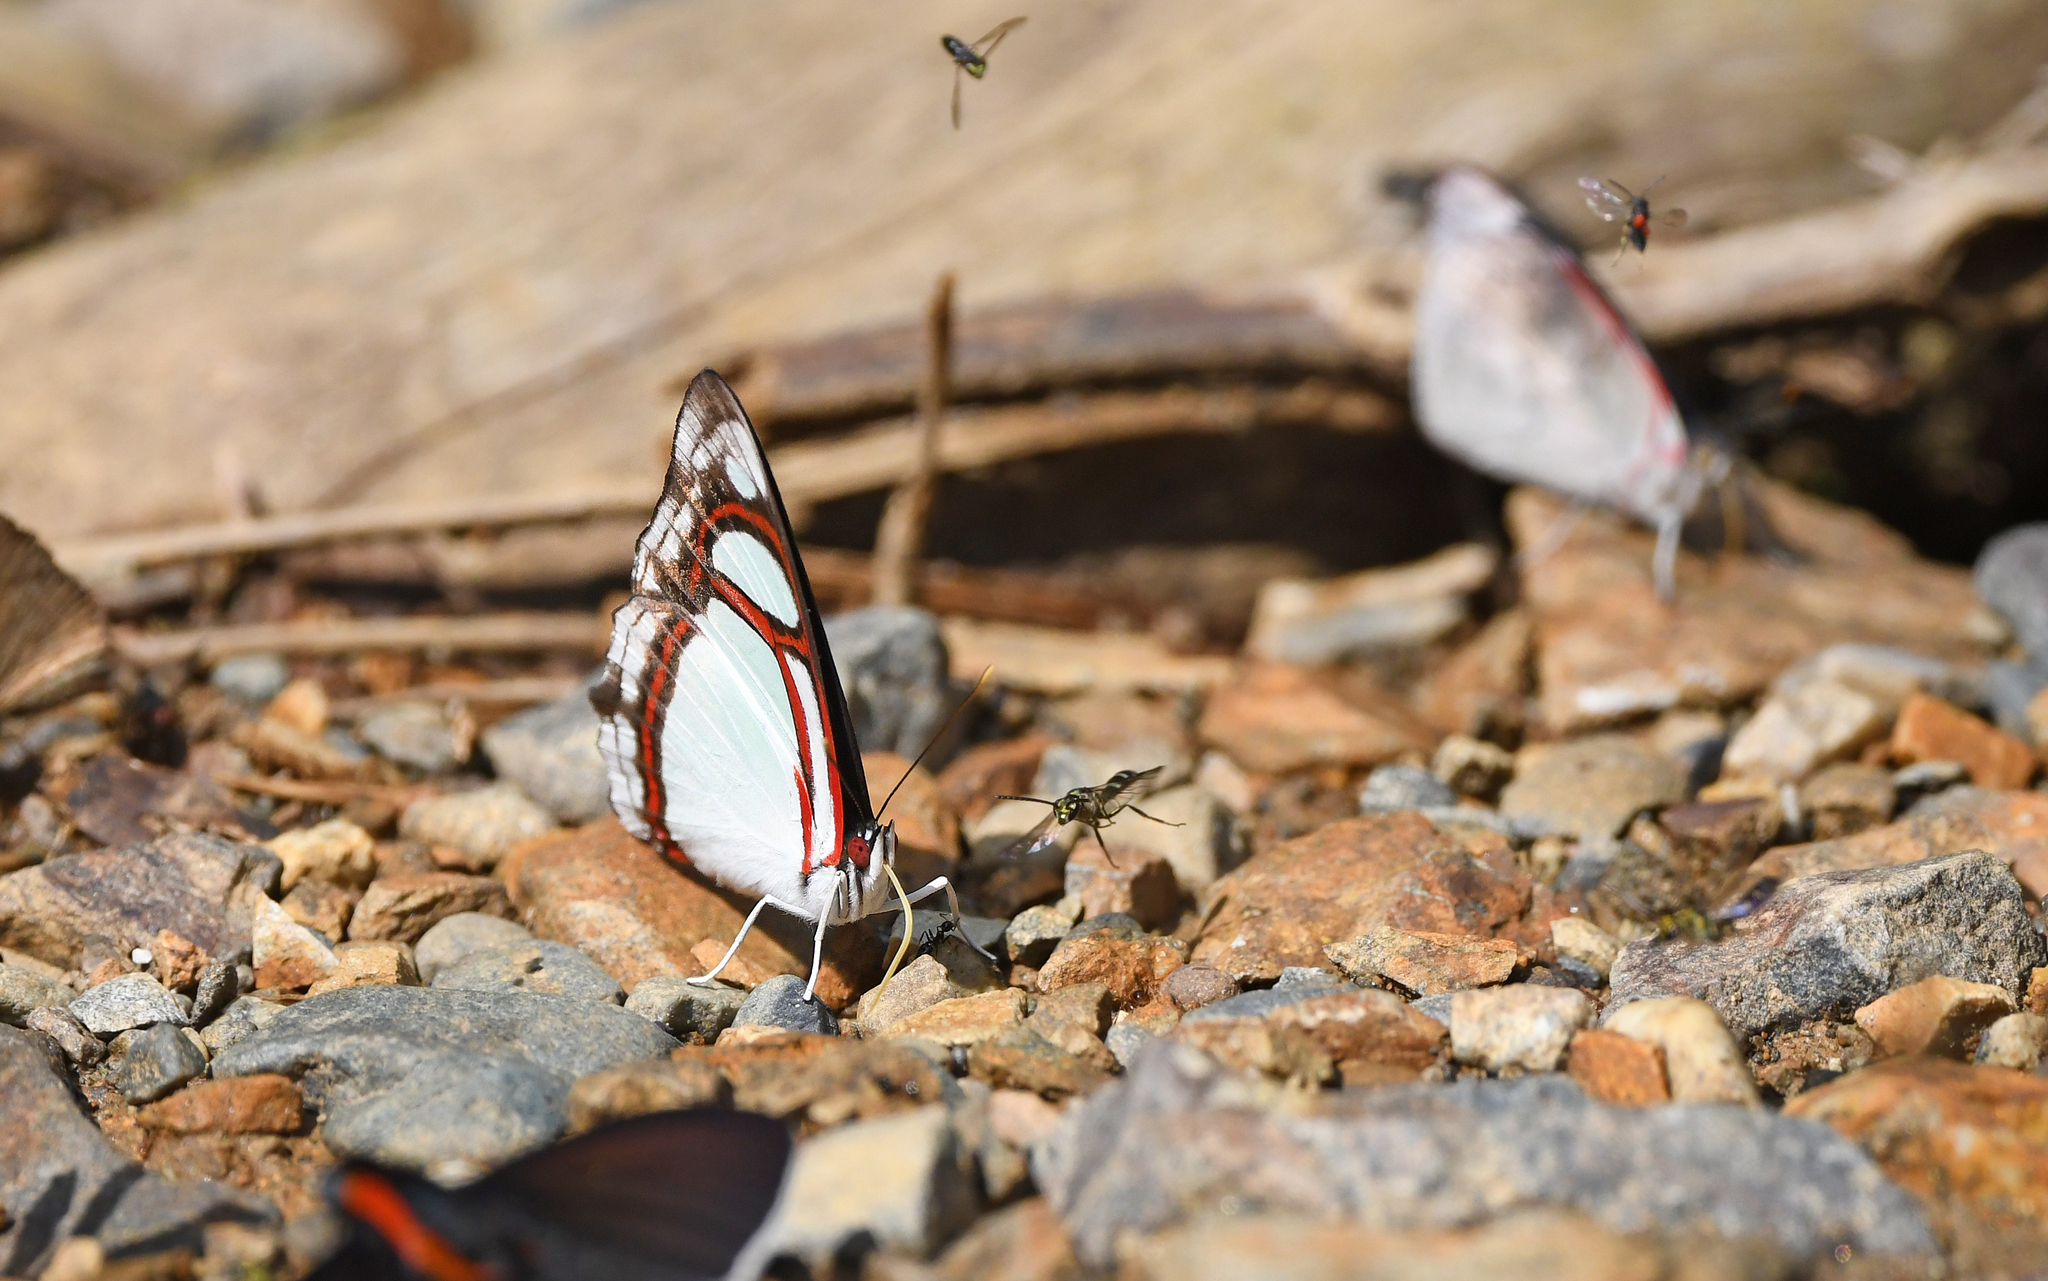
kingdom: Animalia
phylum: Arthropoda
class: Insecta
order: Lepidoptera
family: Nymphalidae
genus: Pyrrhogyra
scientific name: Pyrrhogyra edocla
